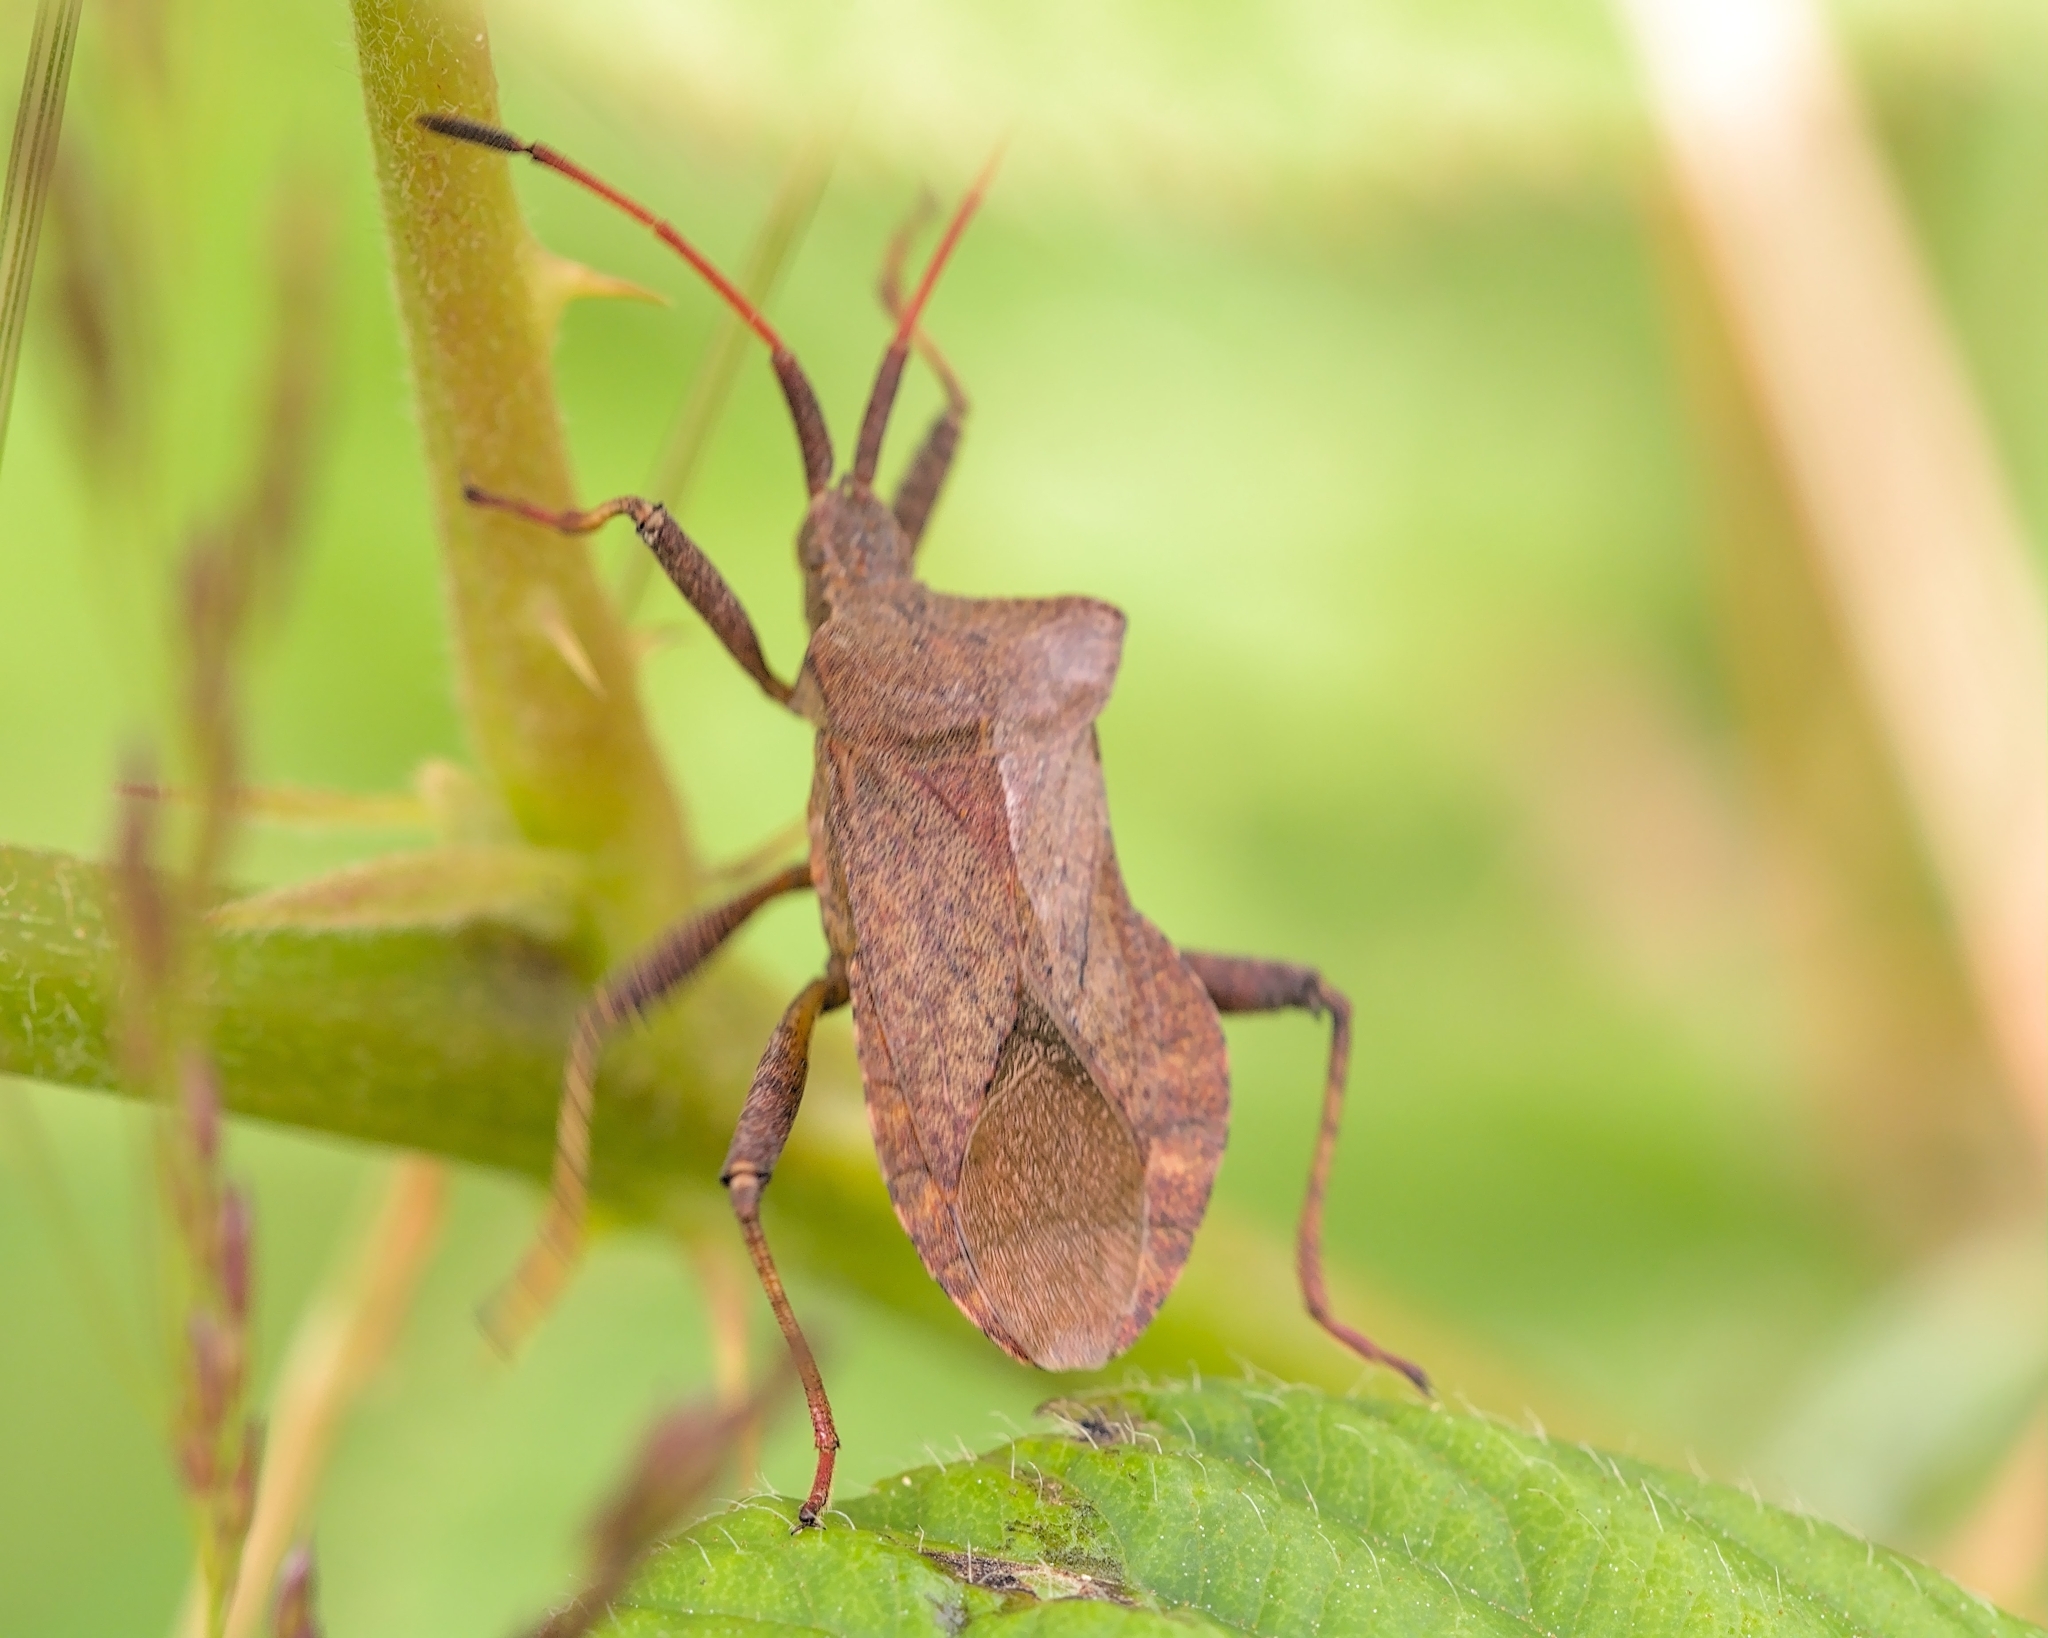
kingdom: Animalia
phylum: Arthropoda
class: Insecta
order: Hemiptera
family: Coreidae
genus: Coreus
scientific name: Coreus marginatus
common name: Dock bug
